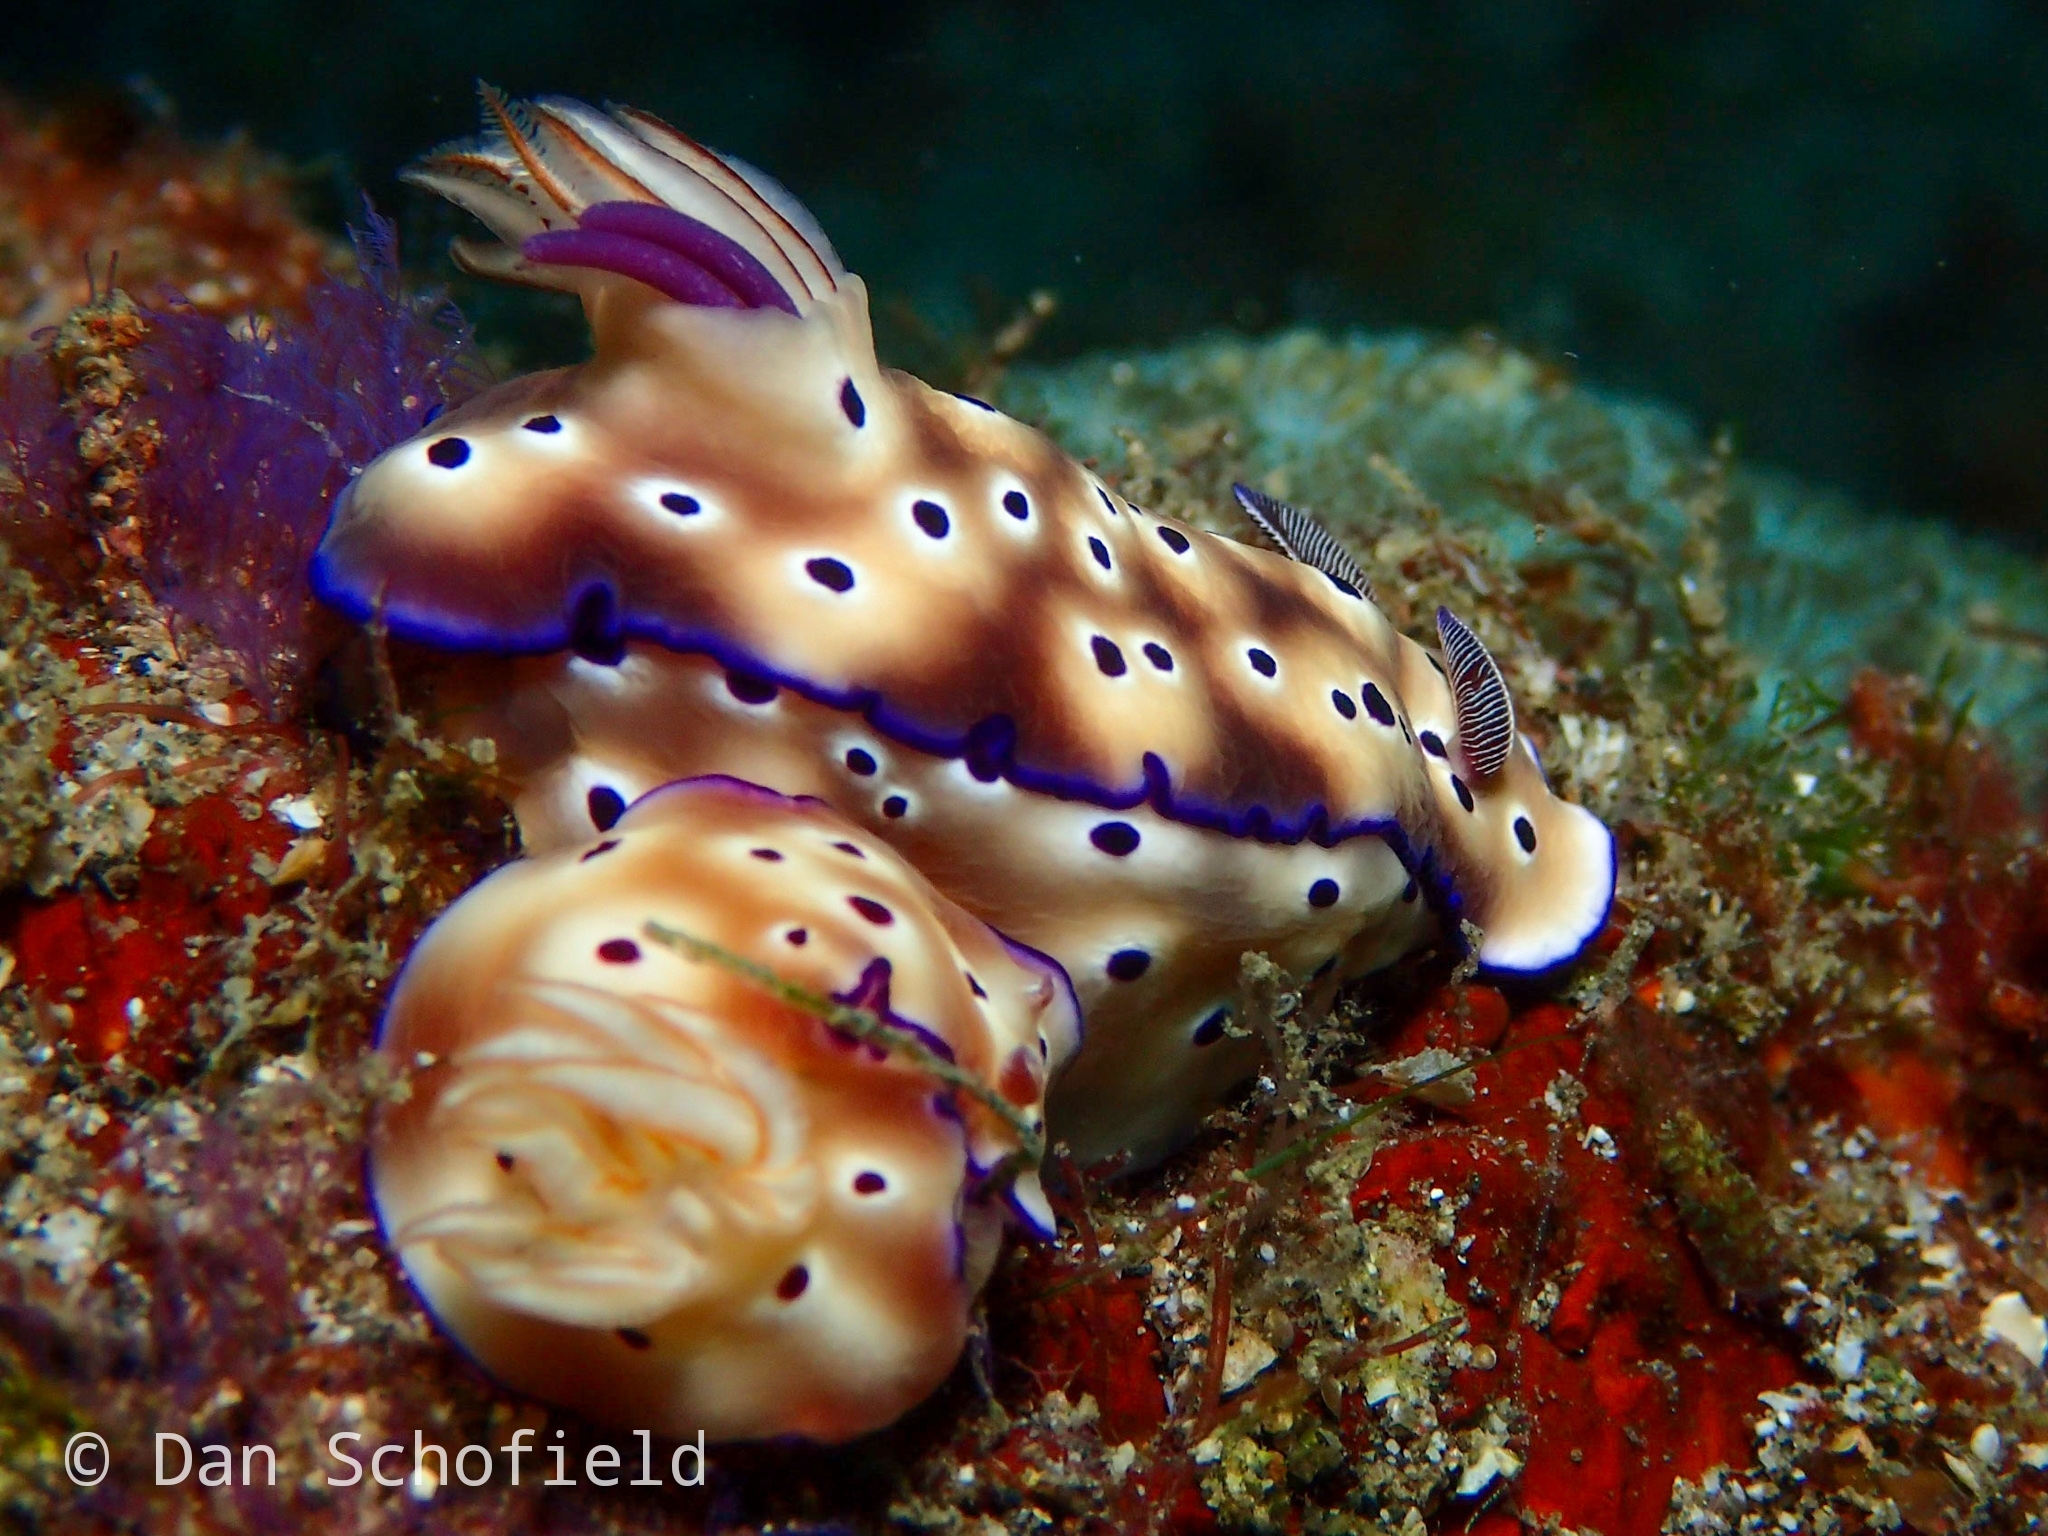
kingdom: Animalia
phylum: Mollusca
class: Gastropoda
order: Nudibranchia
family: Chromodorididae
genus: Hypselodoris
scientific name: Hypselodoris tryoni
